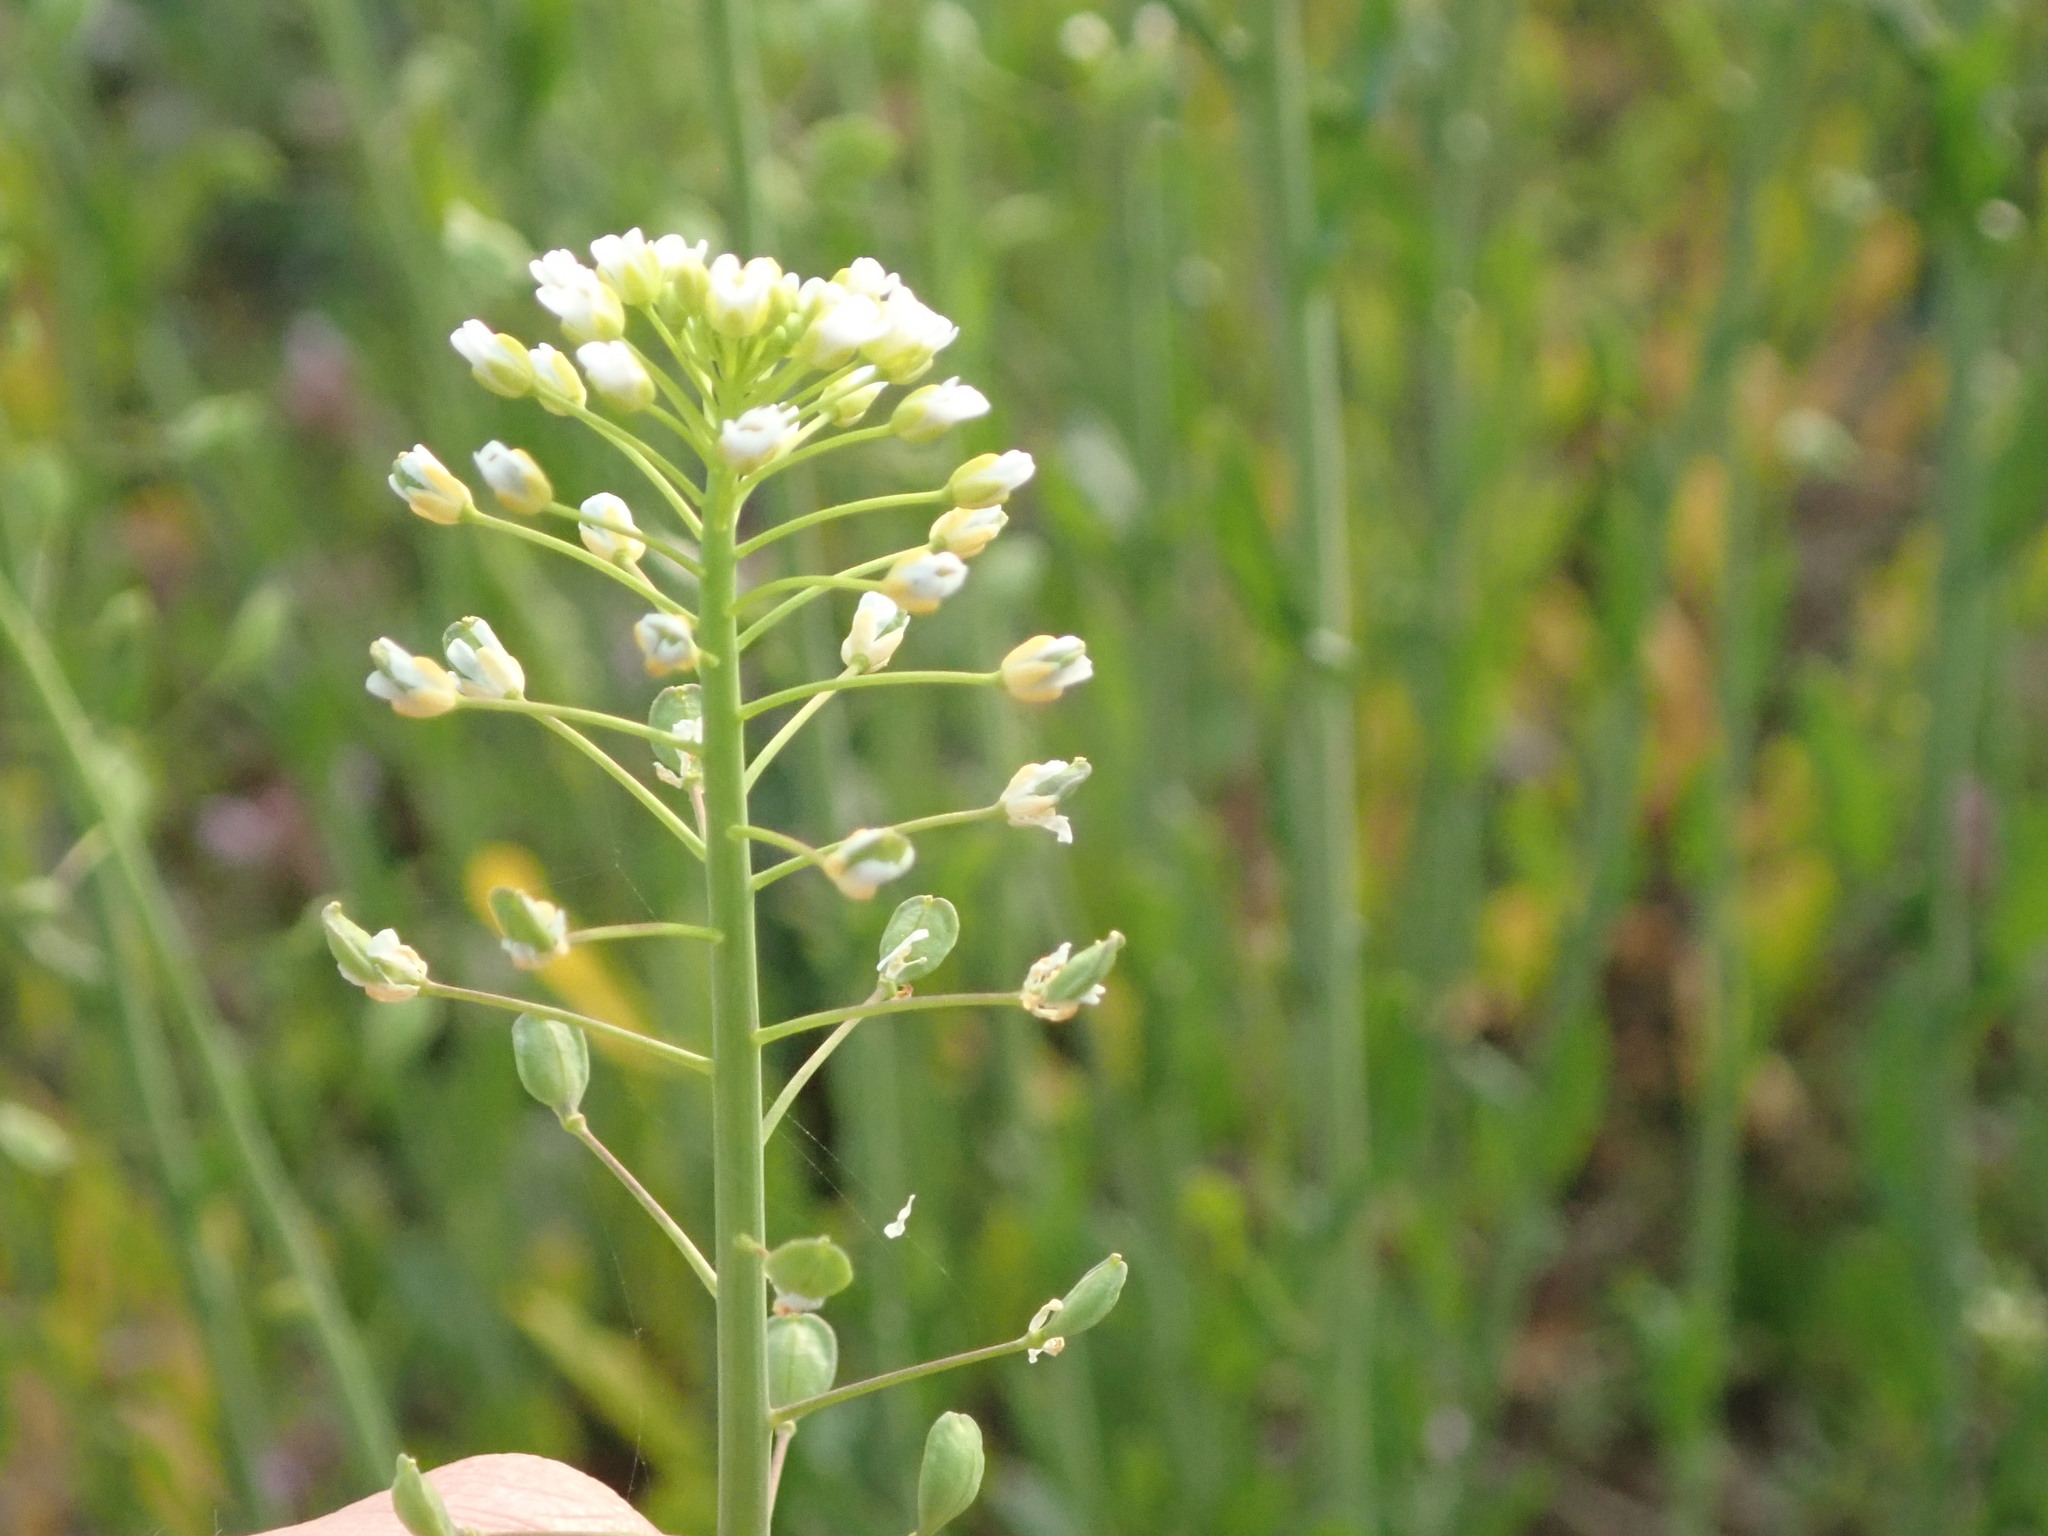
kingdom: Plantae
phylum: Tracheophyta
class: Magnoliopsida
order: Brassicales
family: Brassicaceae
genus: Mummenhoffia
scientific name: Mummenhoffia alliacea
